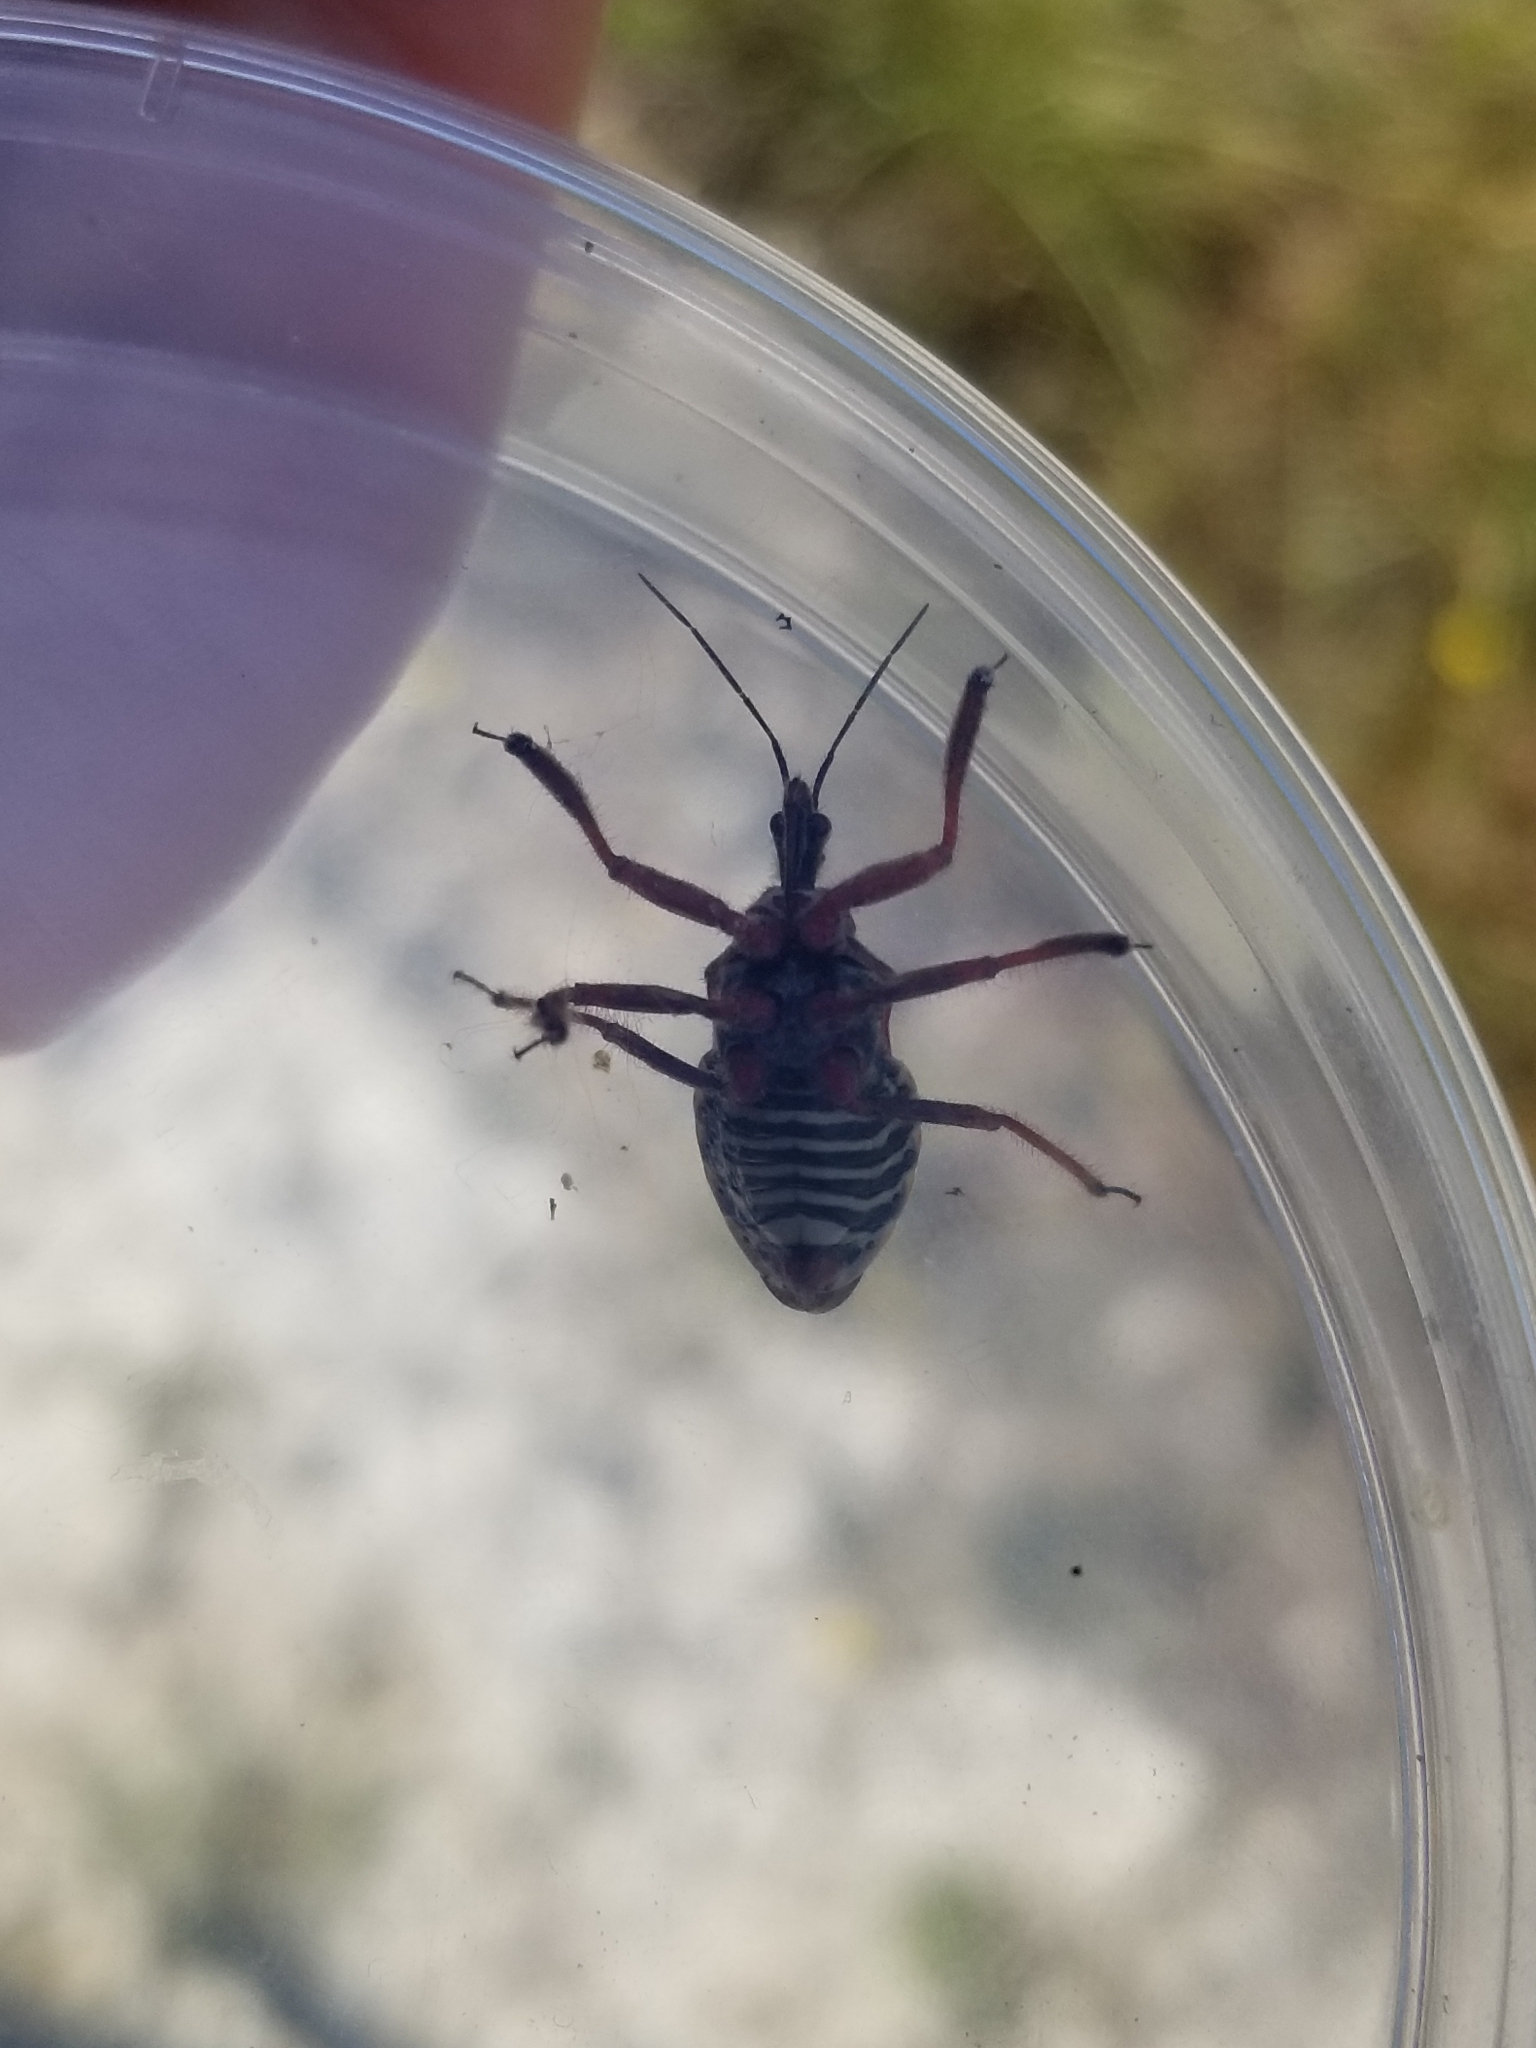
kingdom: Animalia
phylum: Arthropoda
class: Insecta
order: Hemiptera
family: Reduviidae
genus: Apiomerus
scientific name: Apiomerus spissipes
